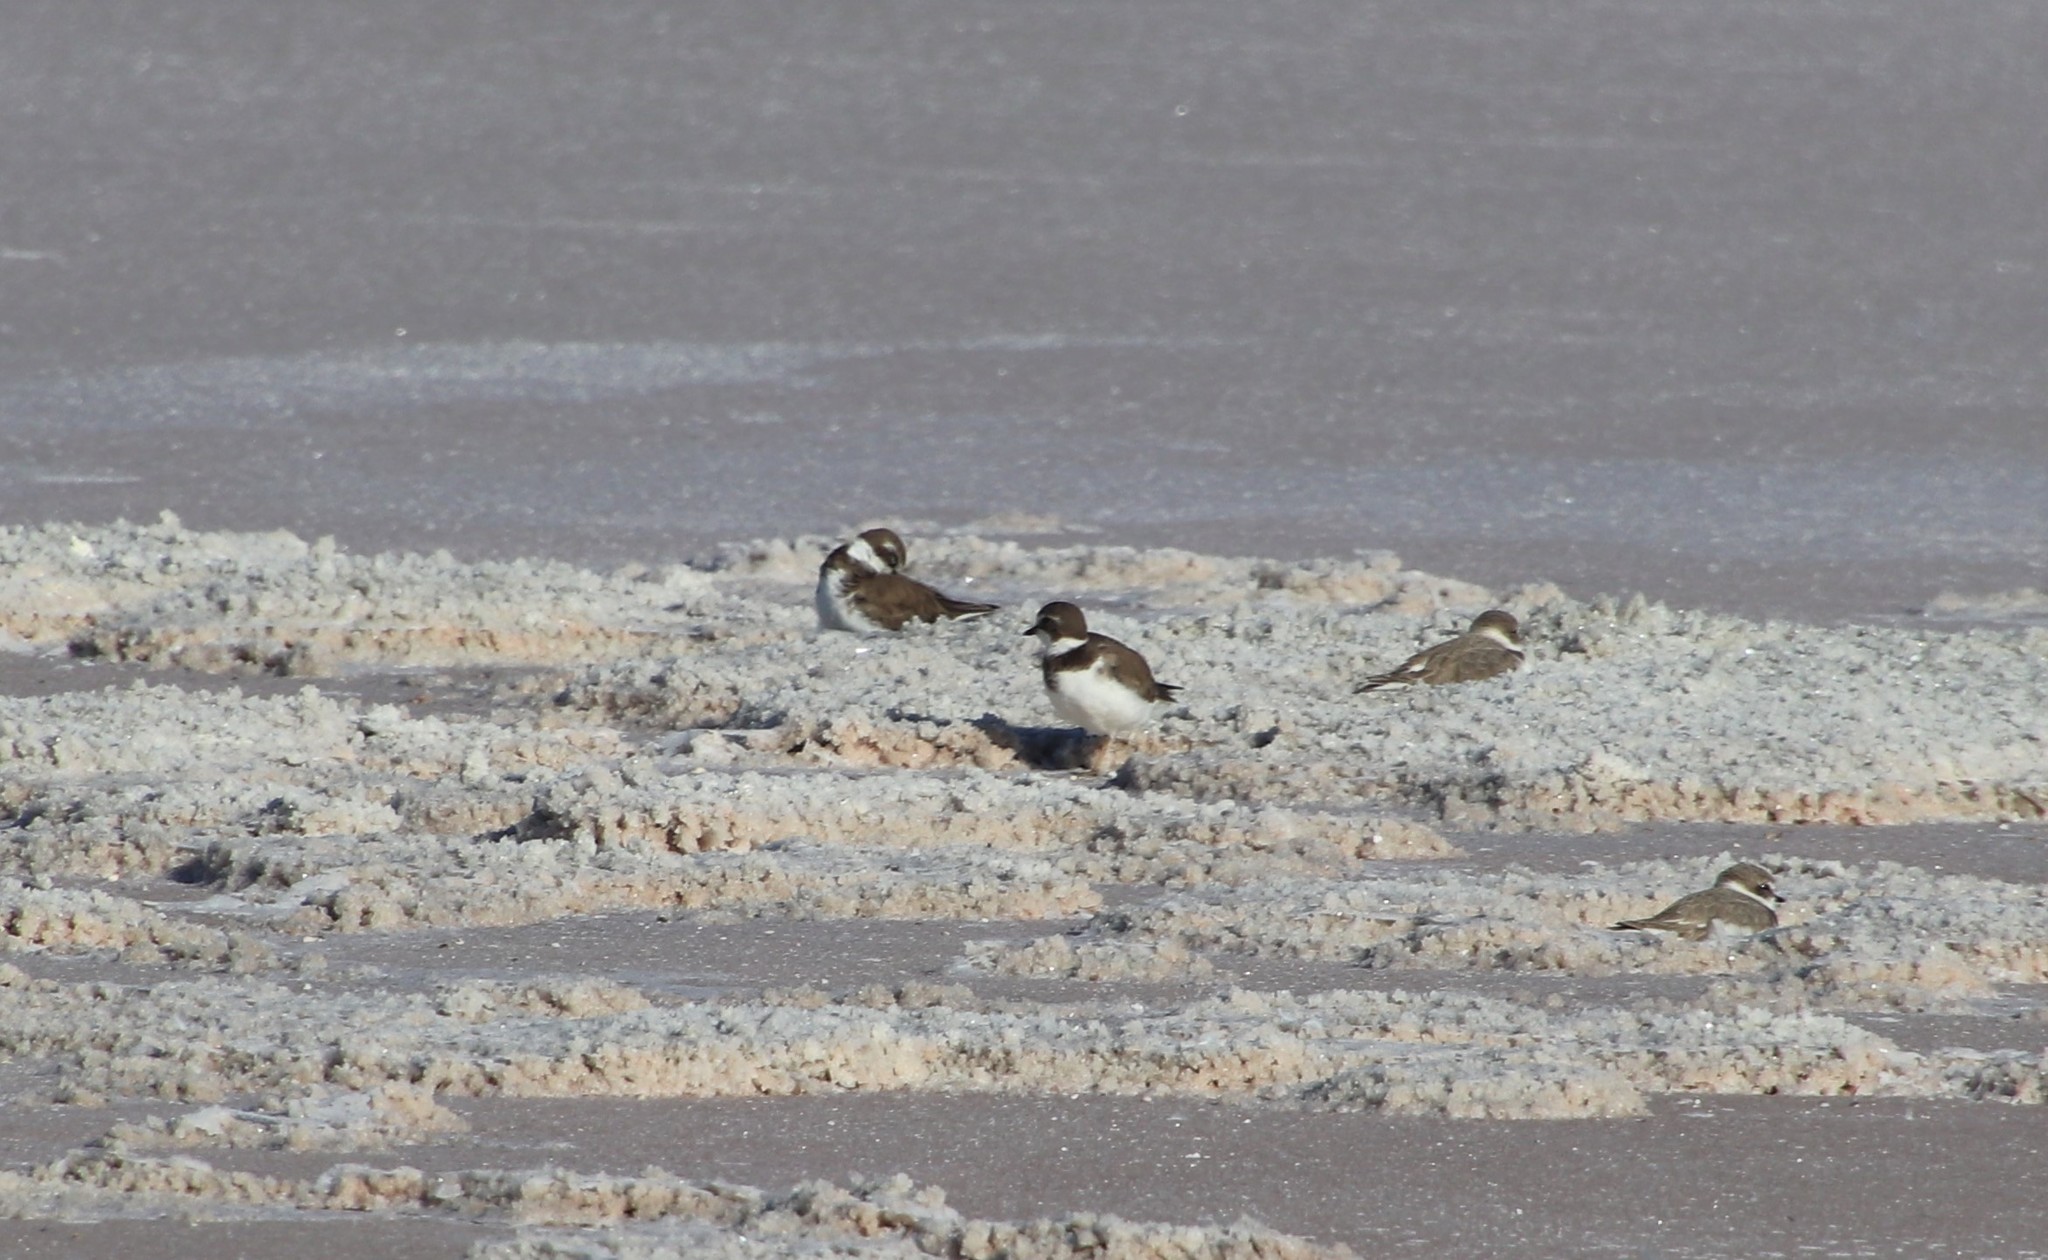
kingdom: Animalia
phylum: Chordata
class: Aves
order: Charadriiformes
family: Charadriidae
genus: Charadrius
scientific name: Charadrius semipalmatus
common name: Semipalmated plover
